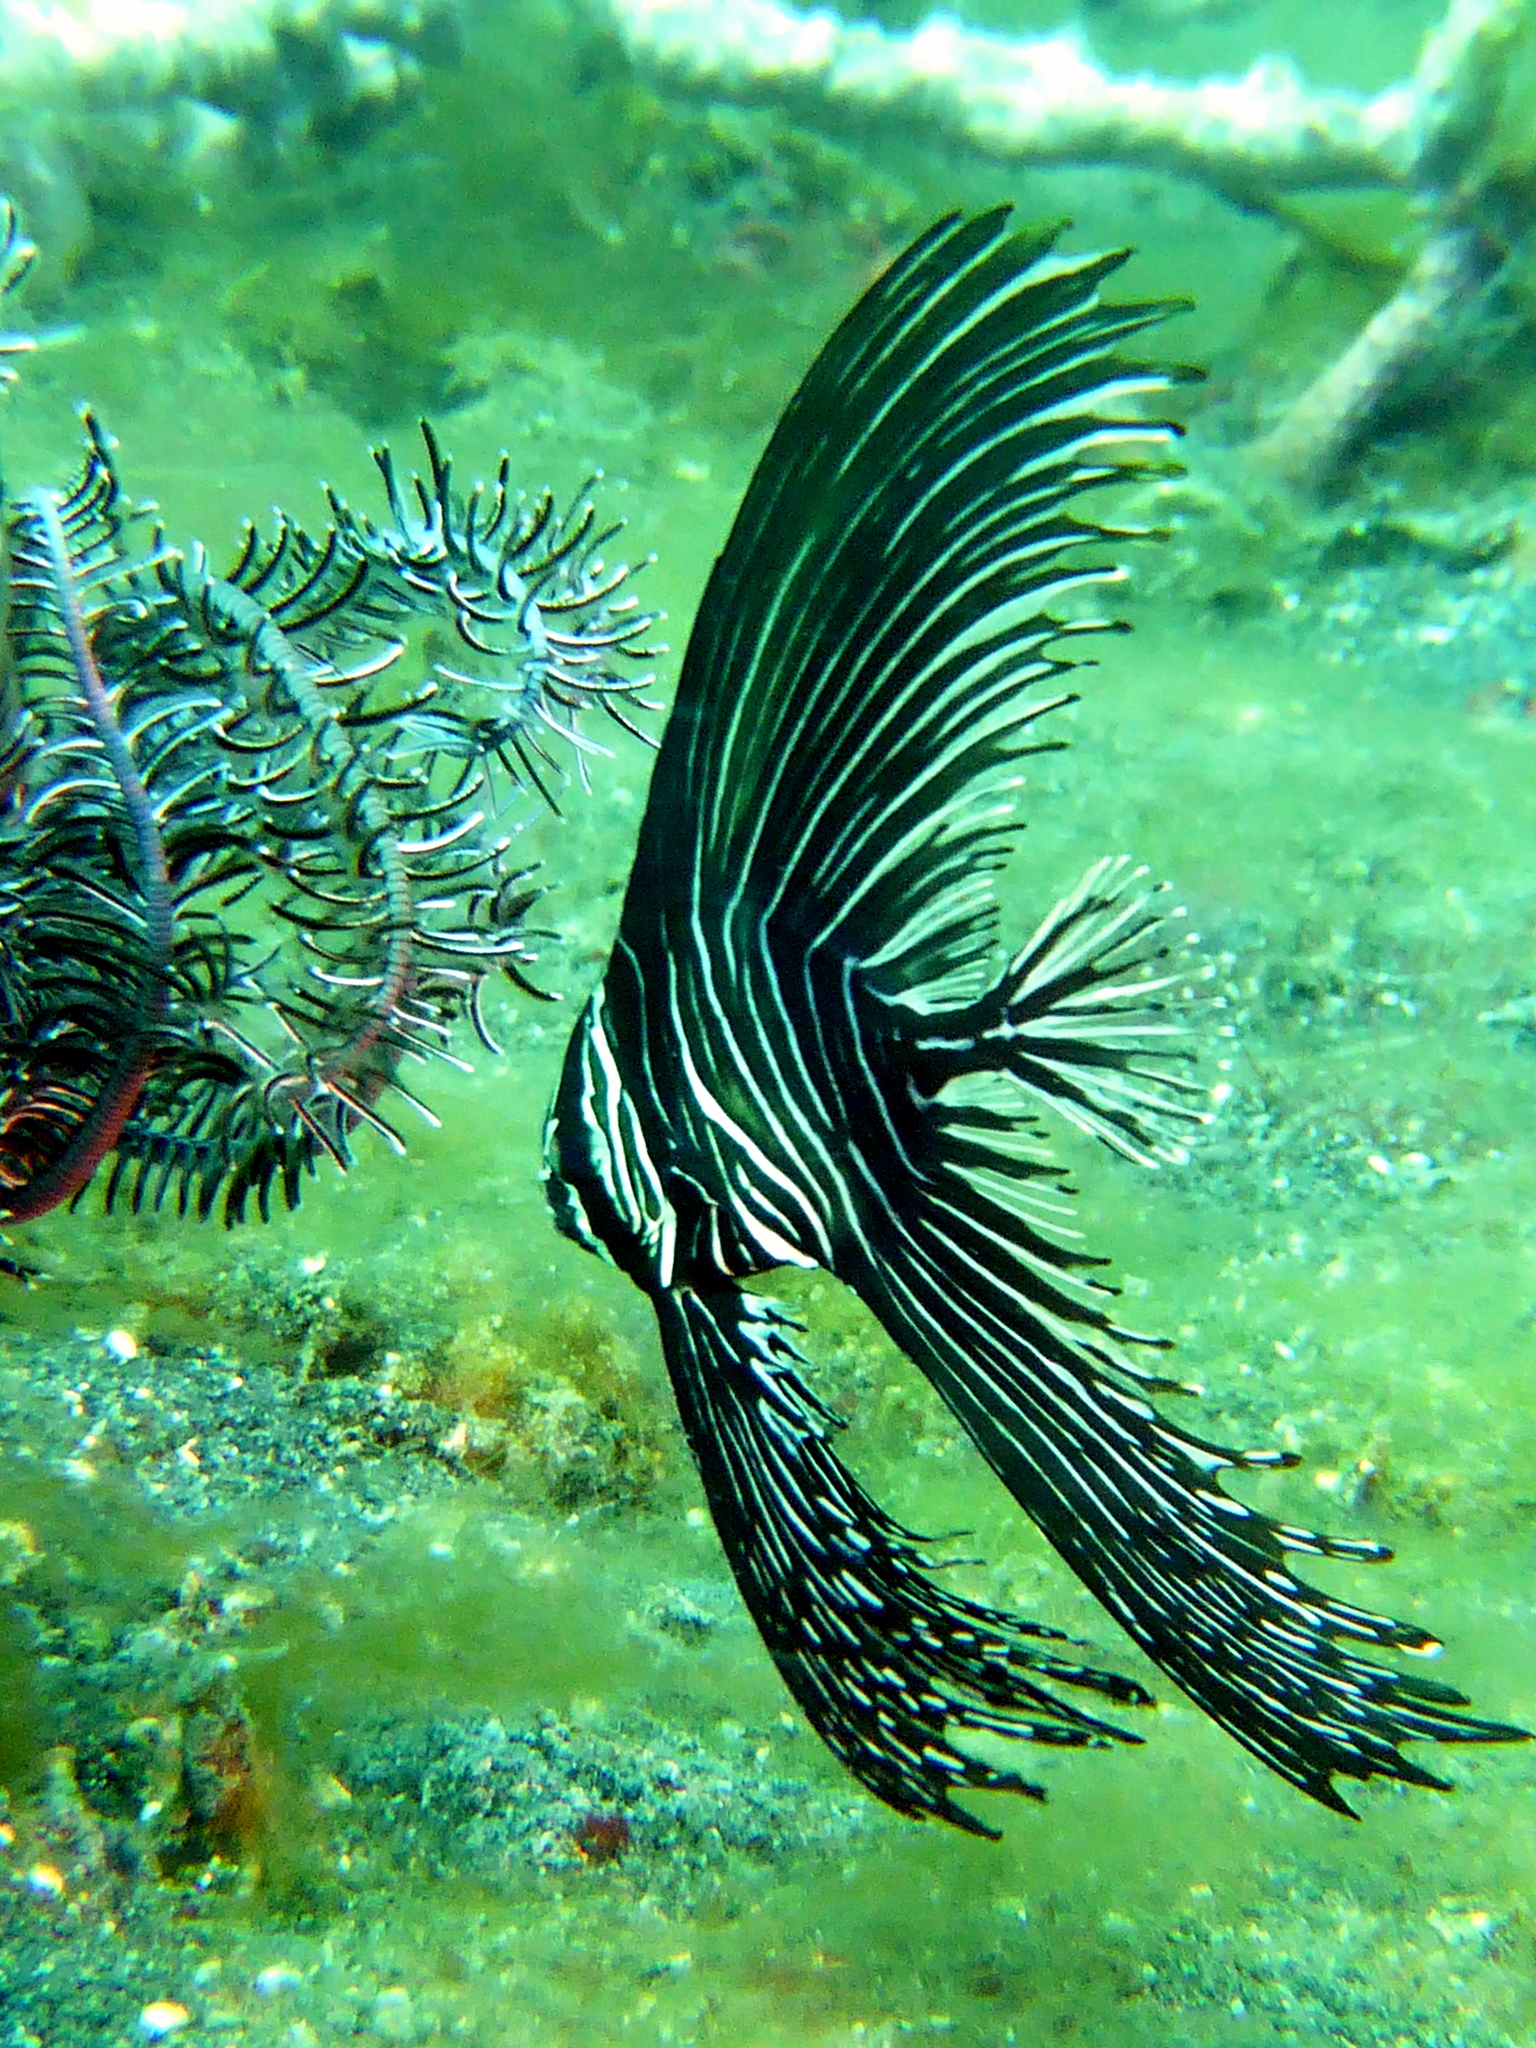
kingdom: Animalia
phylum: Chordata
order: Perciformes
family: Ephippidae
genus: Platax
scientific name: Platax batavianus
